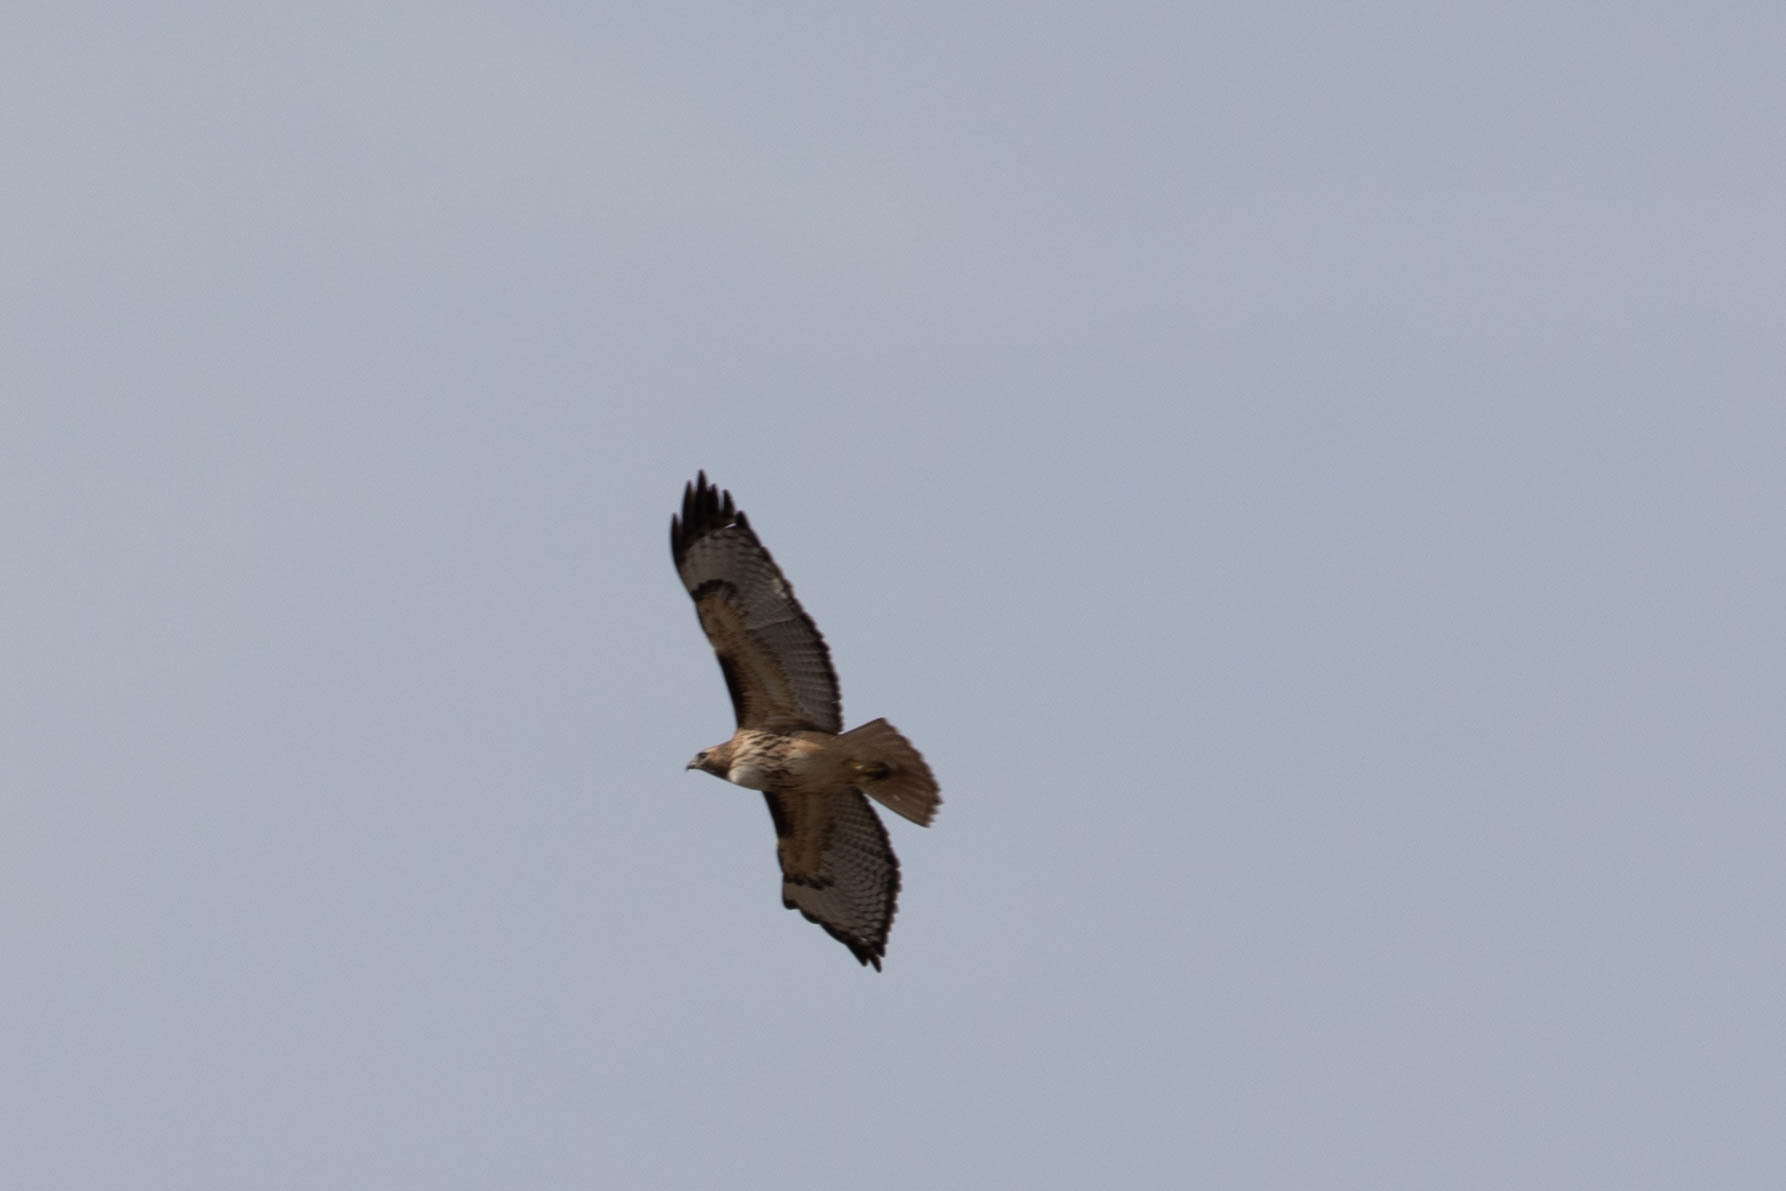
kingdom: Animalia
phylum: Chordata
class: Aves
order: Accipitriformes
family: Accipitridae
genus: Buteo
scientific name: Buteo jamaicensis
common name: Red-tailed hawk
